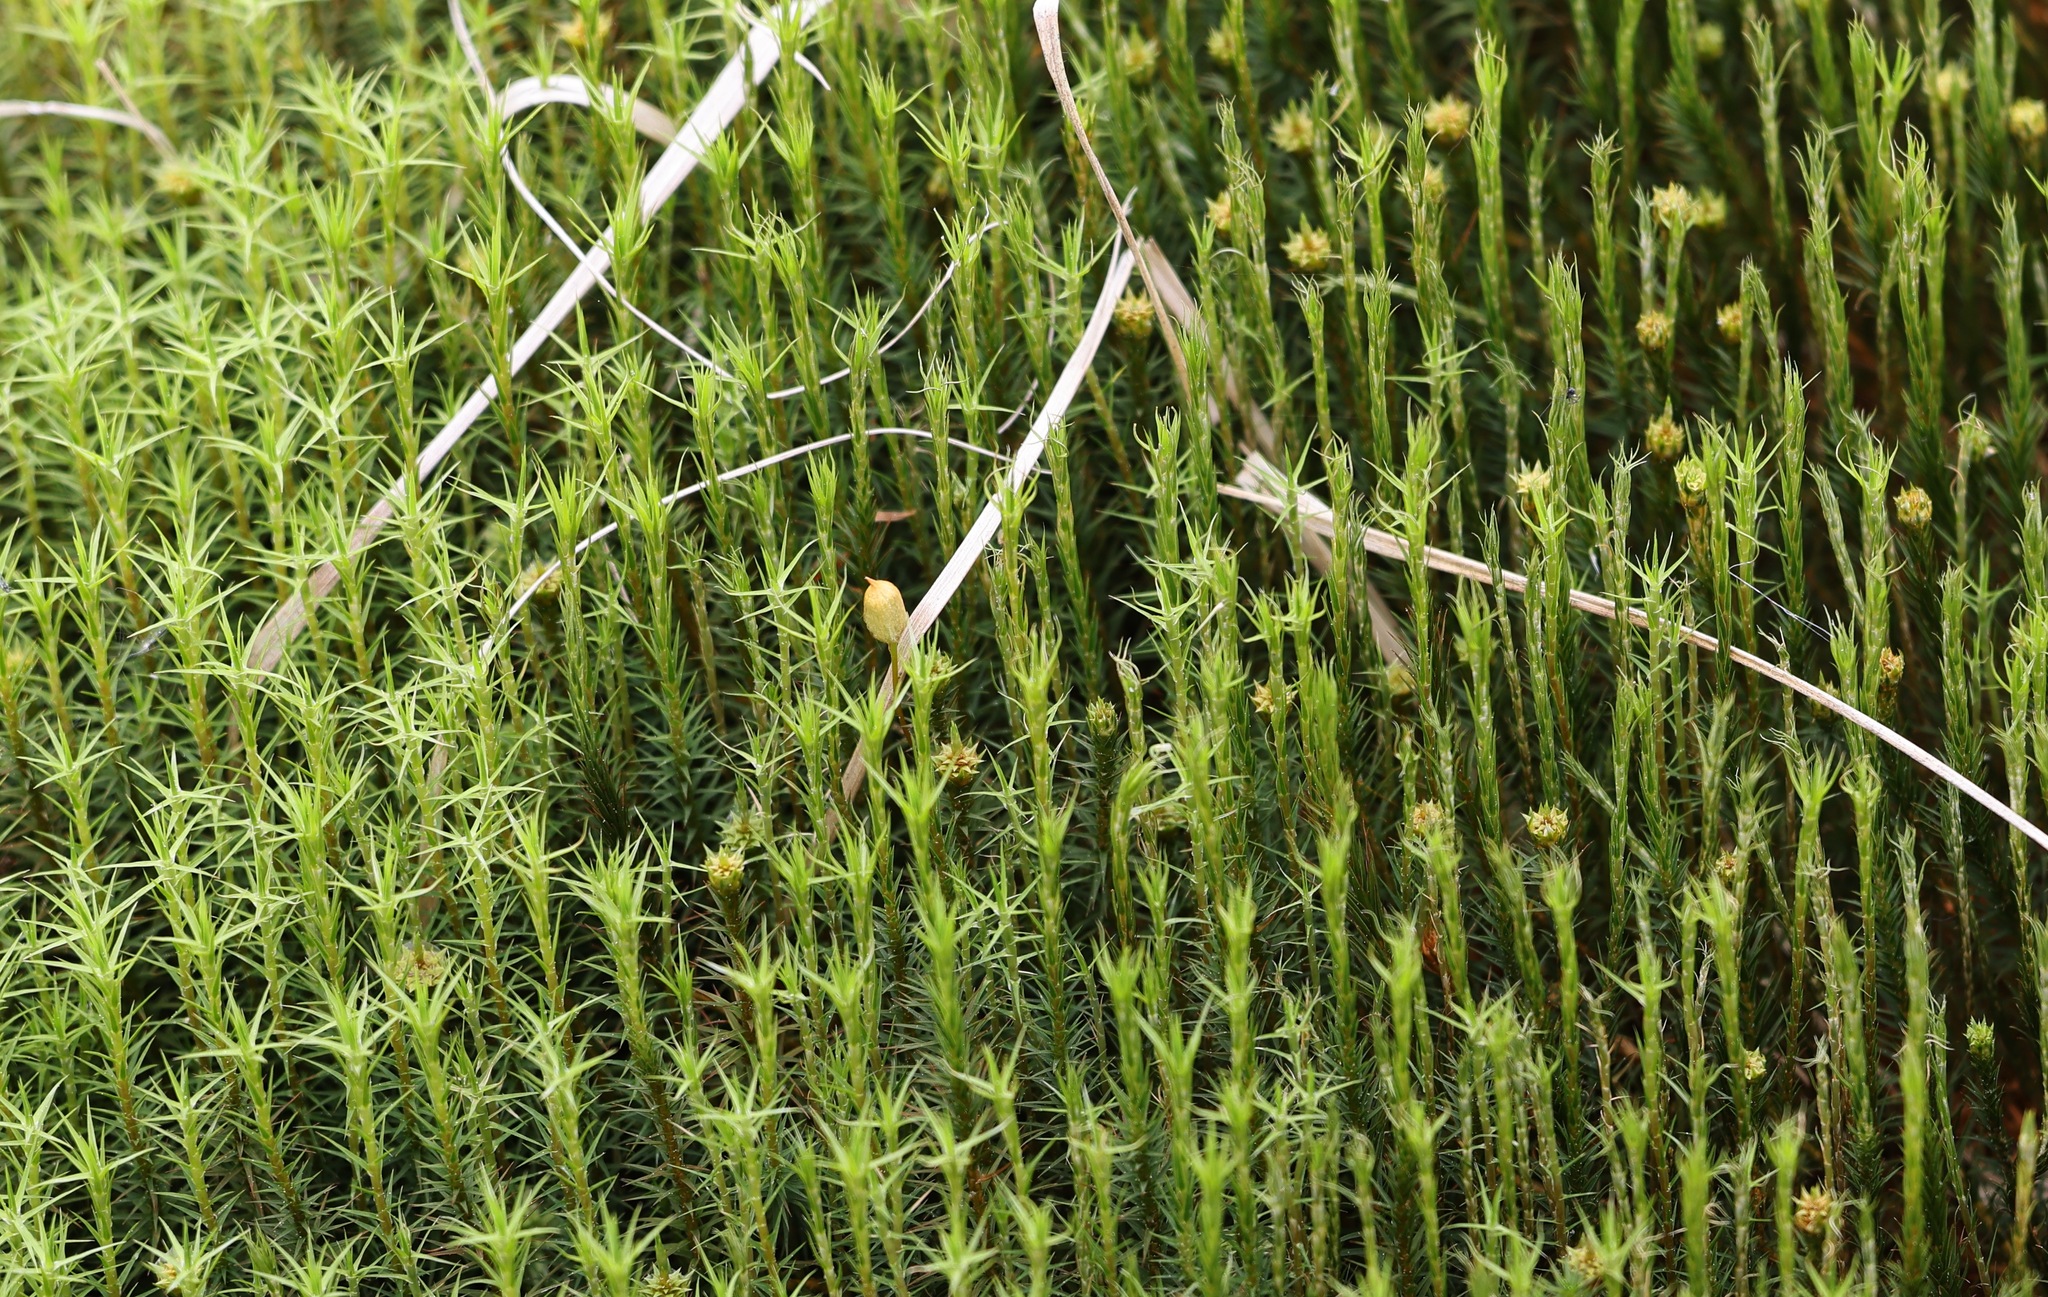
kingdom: Plantae
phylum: Bryophyta
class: Polytrichopsida
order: Polytrichales
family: Polytrichaceae
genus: Polytrichum
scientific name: Polytrichum commune
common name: Common haircap
